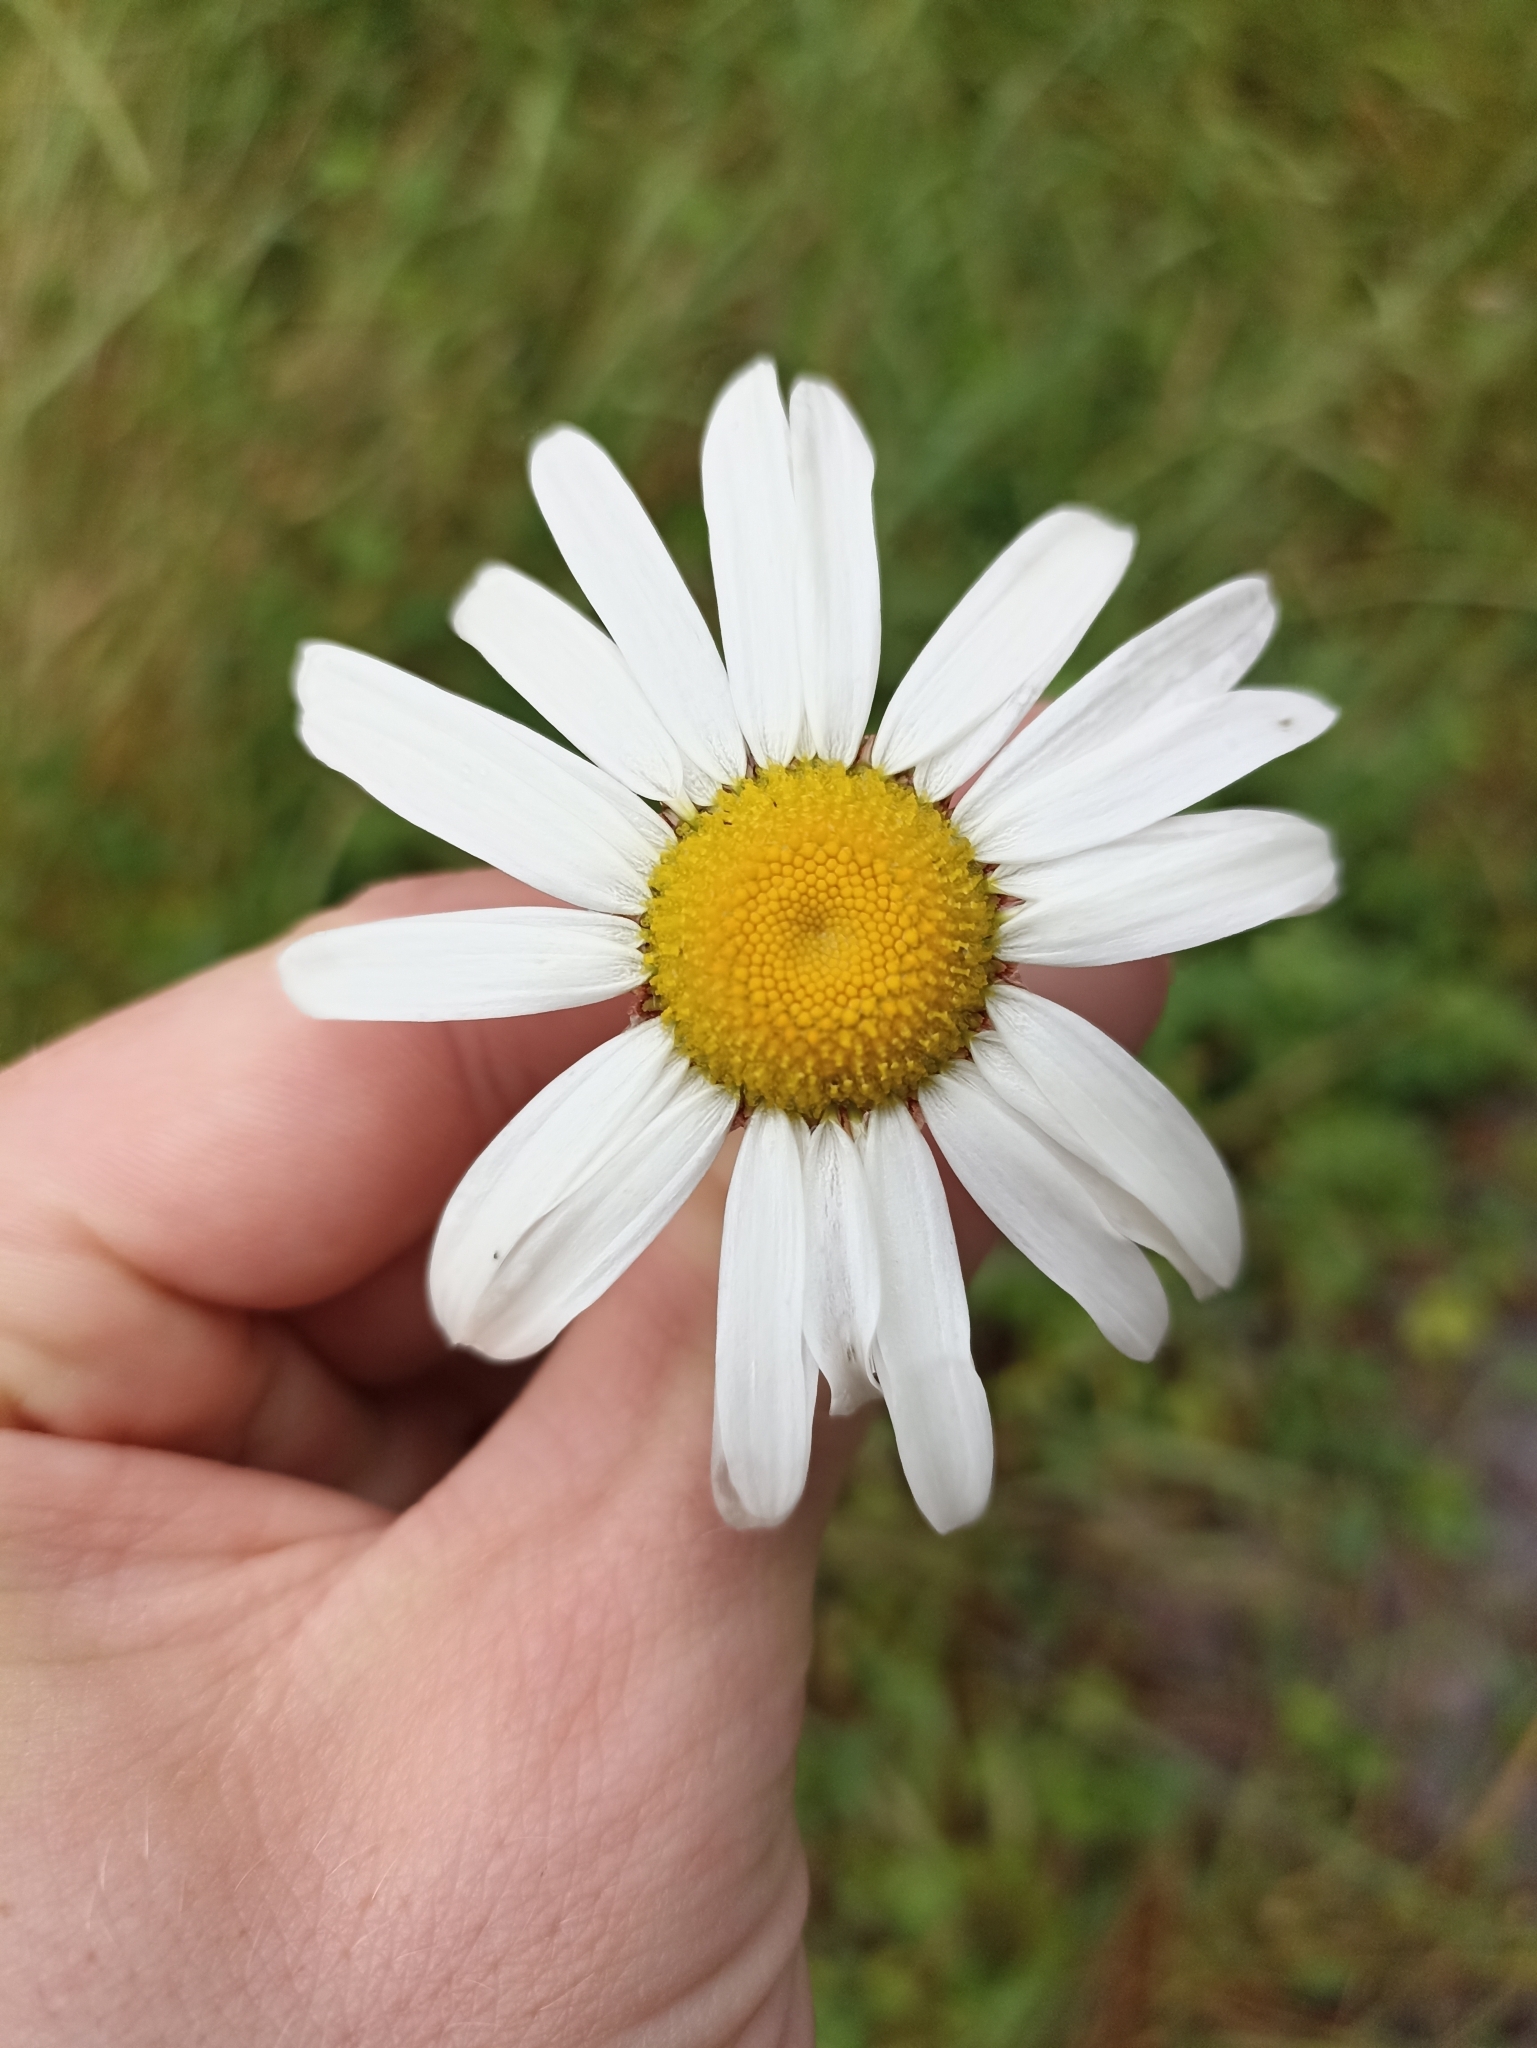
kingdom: Plantae
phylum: Tracheophyta
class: Magnoliopsida
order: Asterales
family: Asteraceae
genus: Leucanthemum
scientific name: Leucanthemum vulgare
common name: Oxeye daisy
